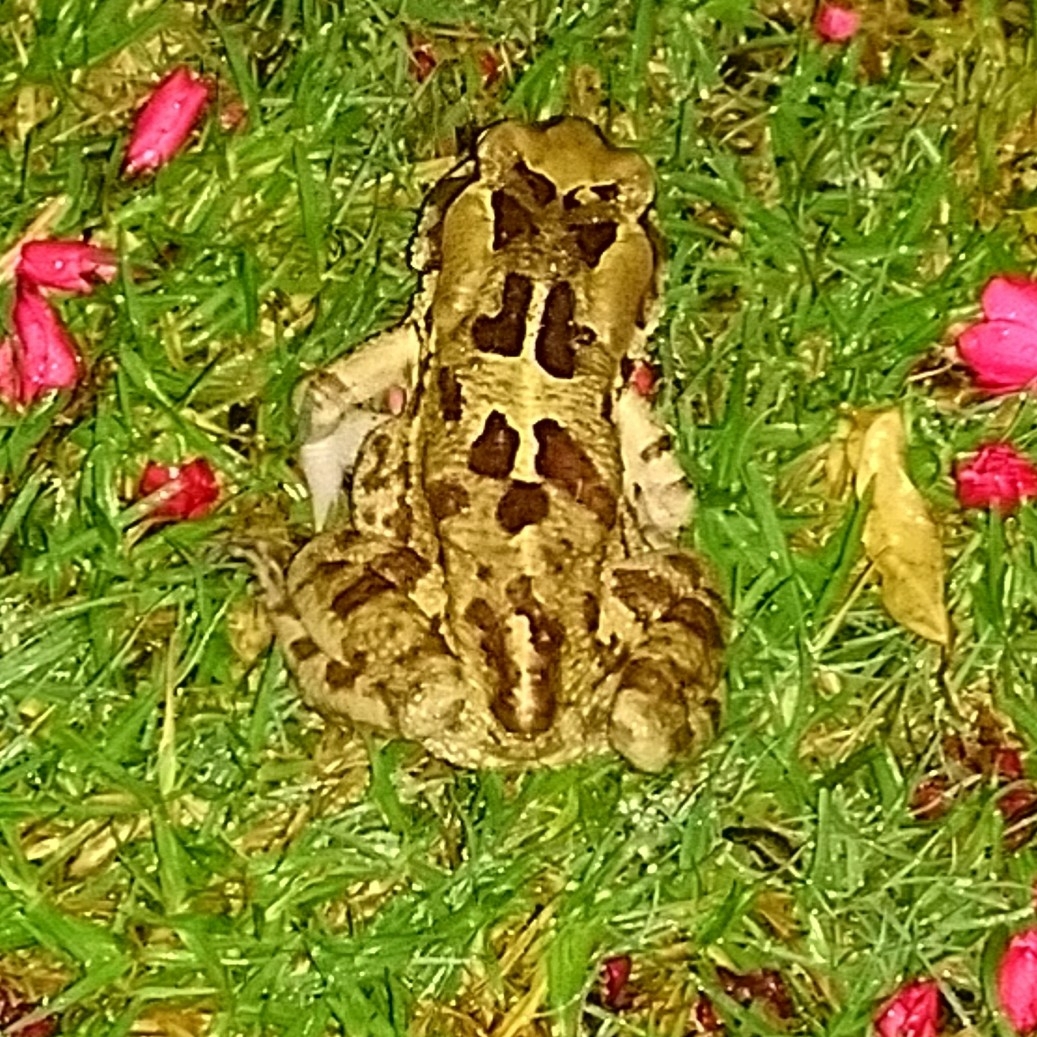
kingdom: Animalia
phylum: Chordata
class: Amphibia
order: Anura
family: Bufonidae
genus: Sclerophrys
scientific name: Sclerophrys pardalis
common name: Eastern leopard toad
